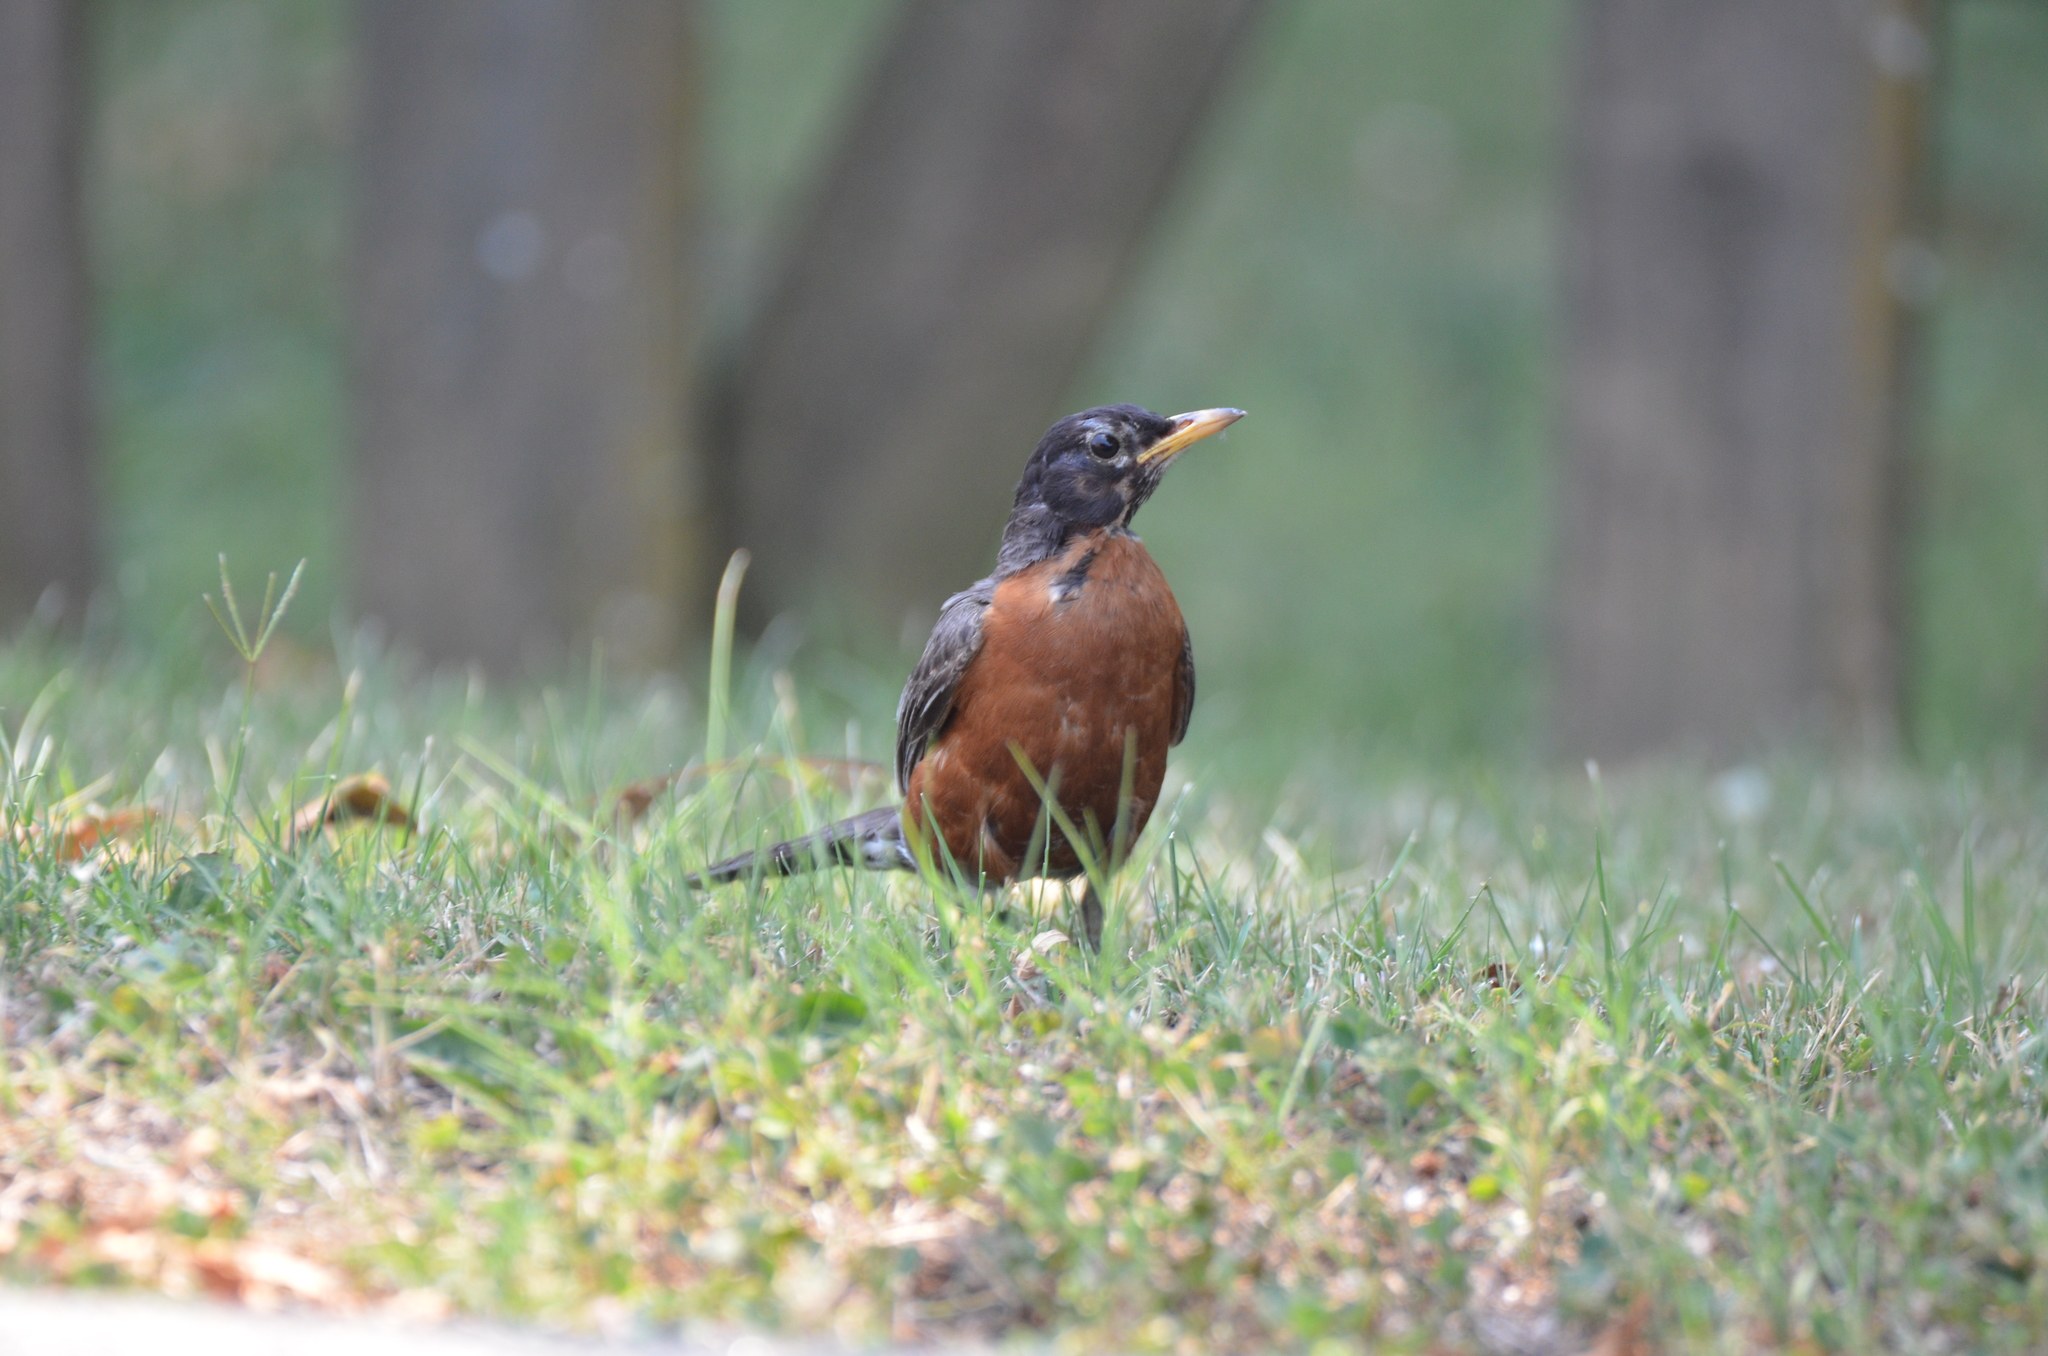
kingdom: Animalia
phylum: Chordata
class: Aves
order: Passeriformes
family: Turdidae
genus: Turdus
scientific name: Turdus migratorius
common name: American robin
